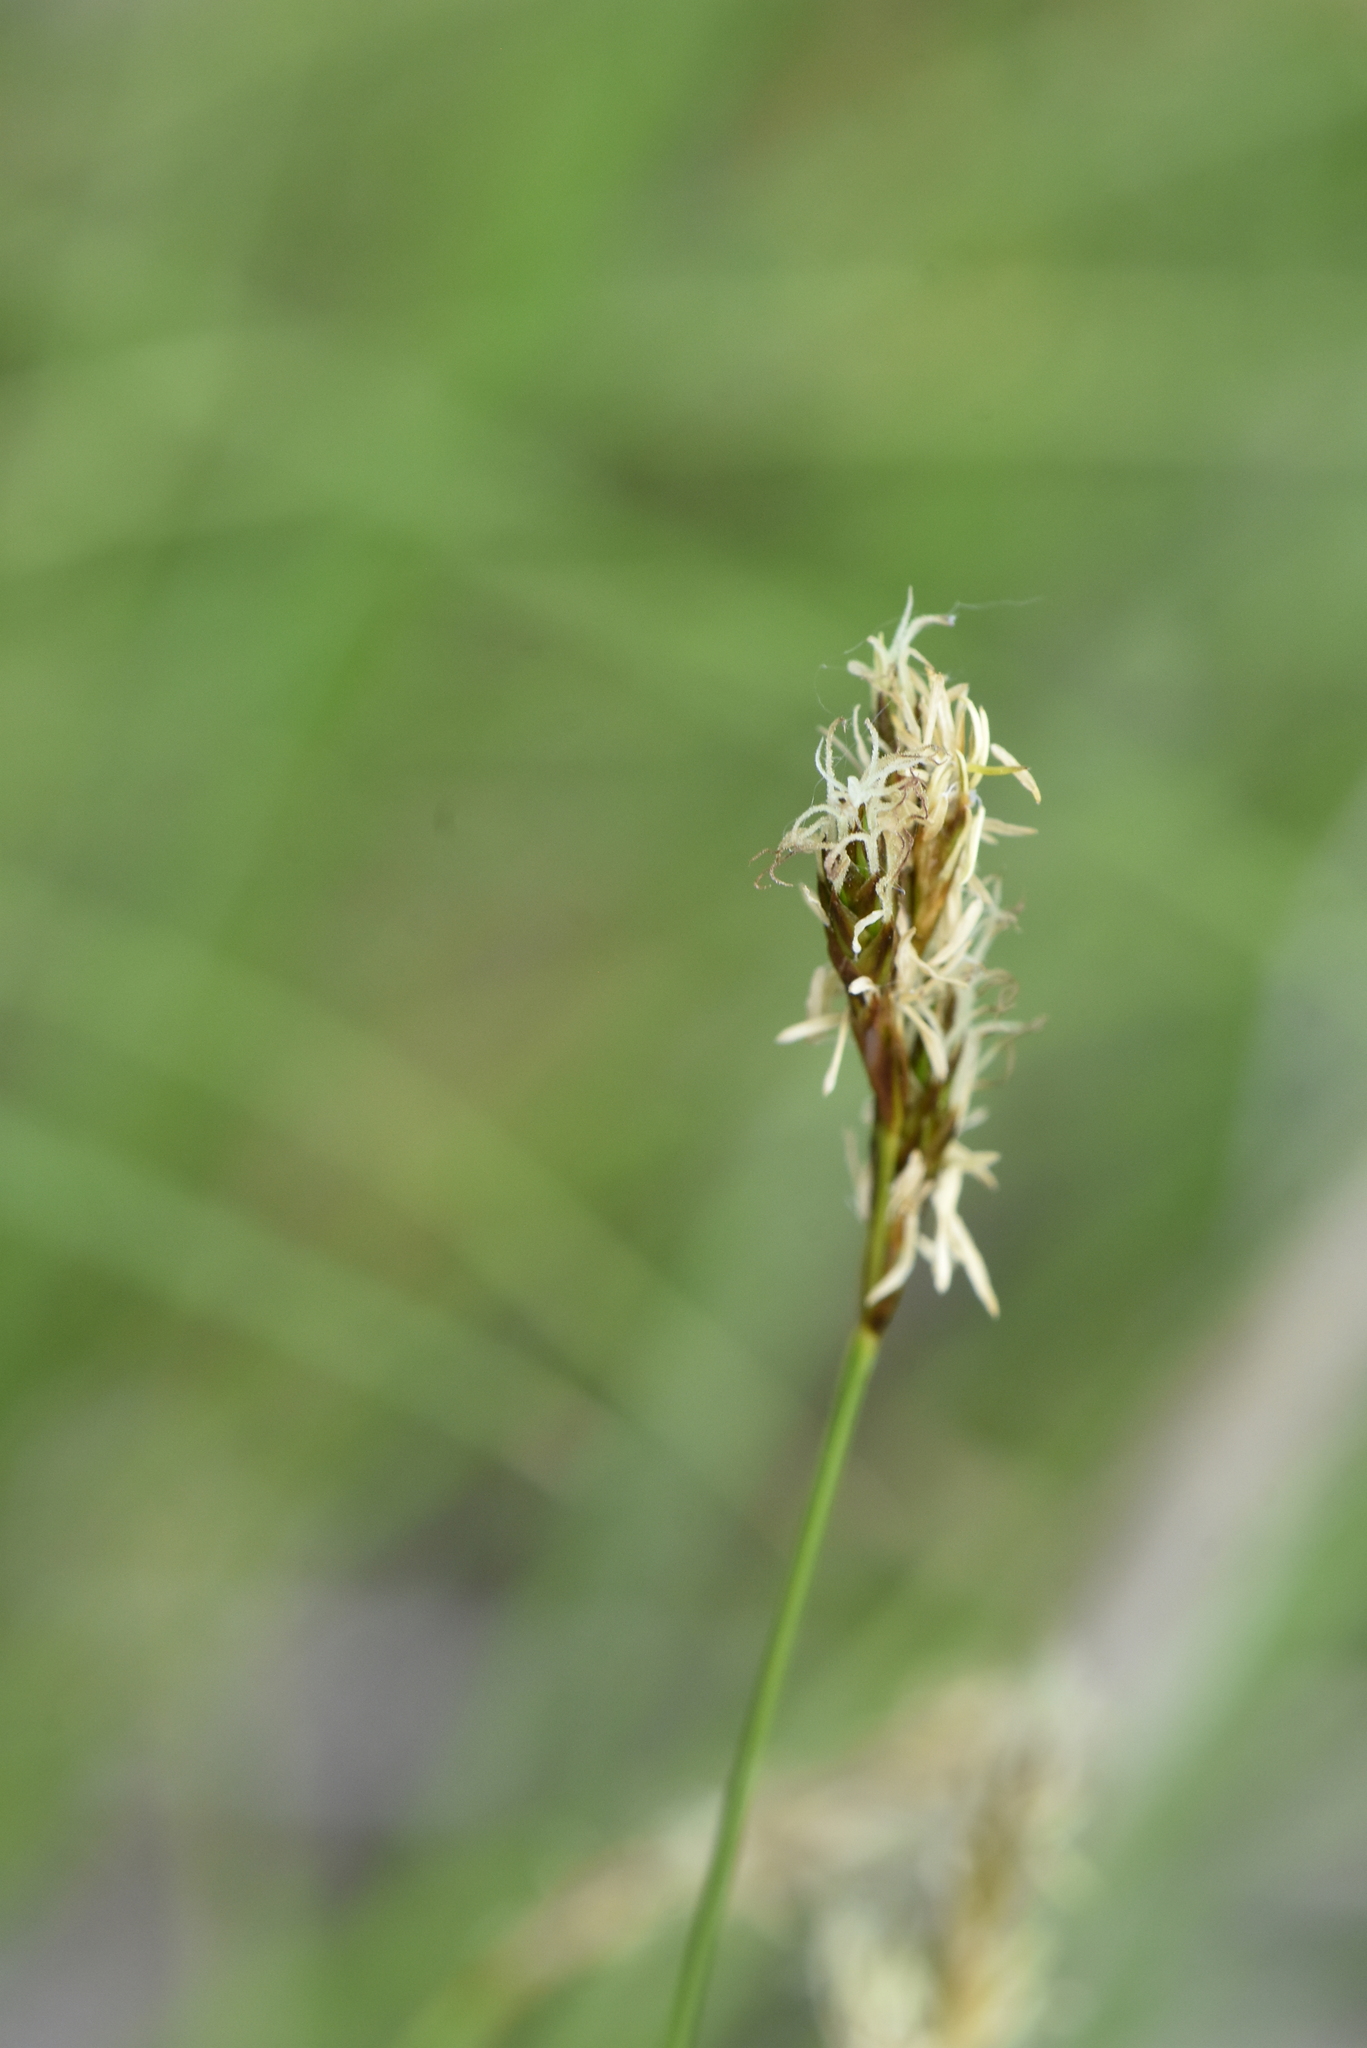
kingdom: Plantae
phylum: Tracheophyta
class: Liliopsida
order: Poales
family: Cyperaceae
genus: Carex
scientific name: Carex praecox
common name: Early sedge
